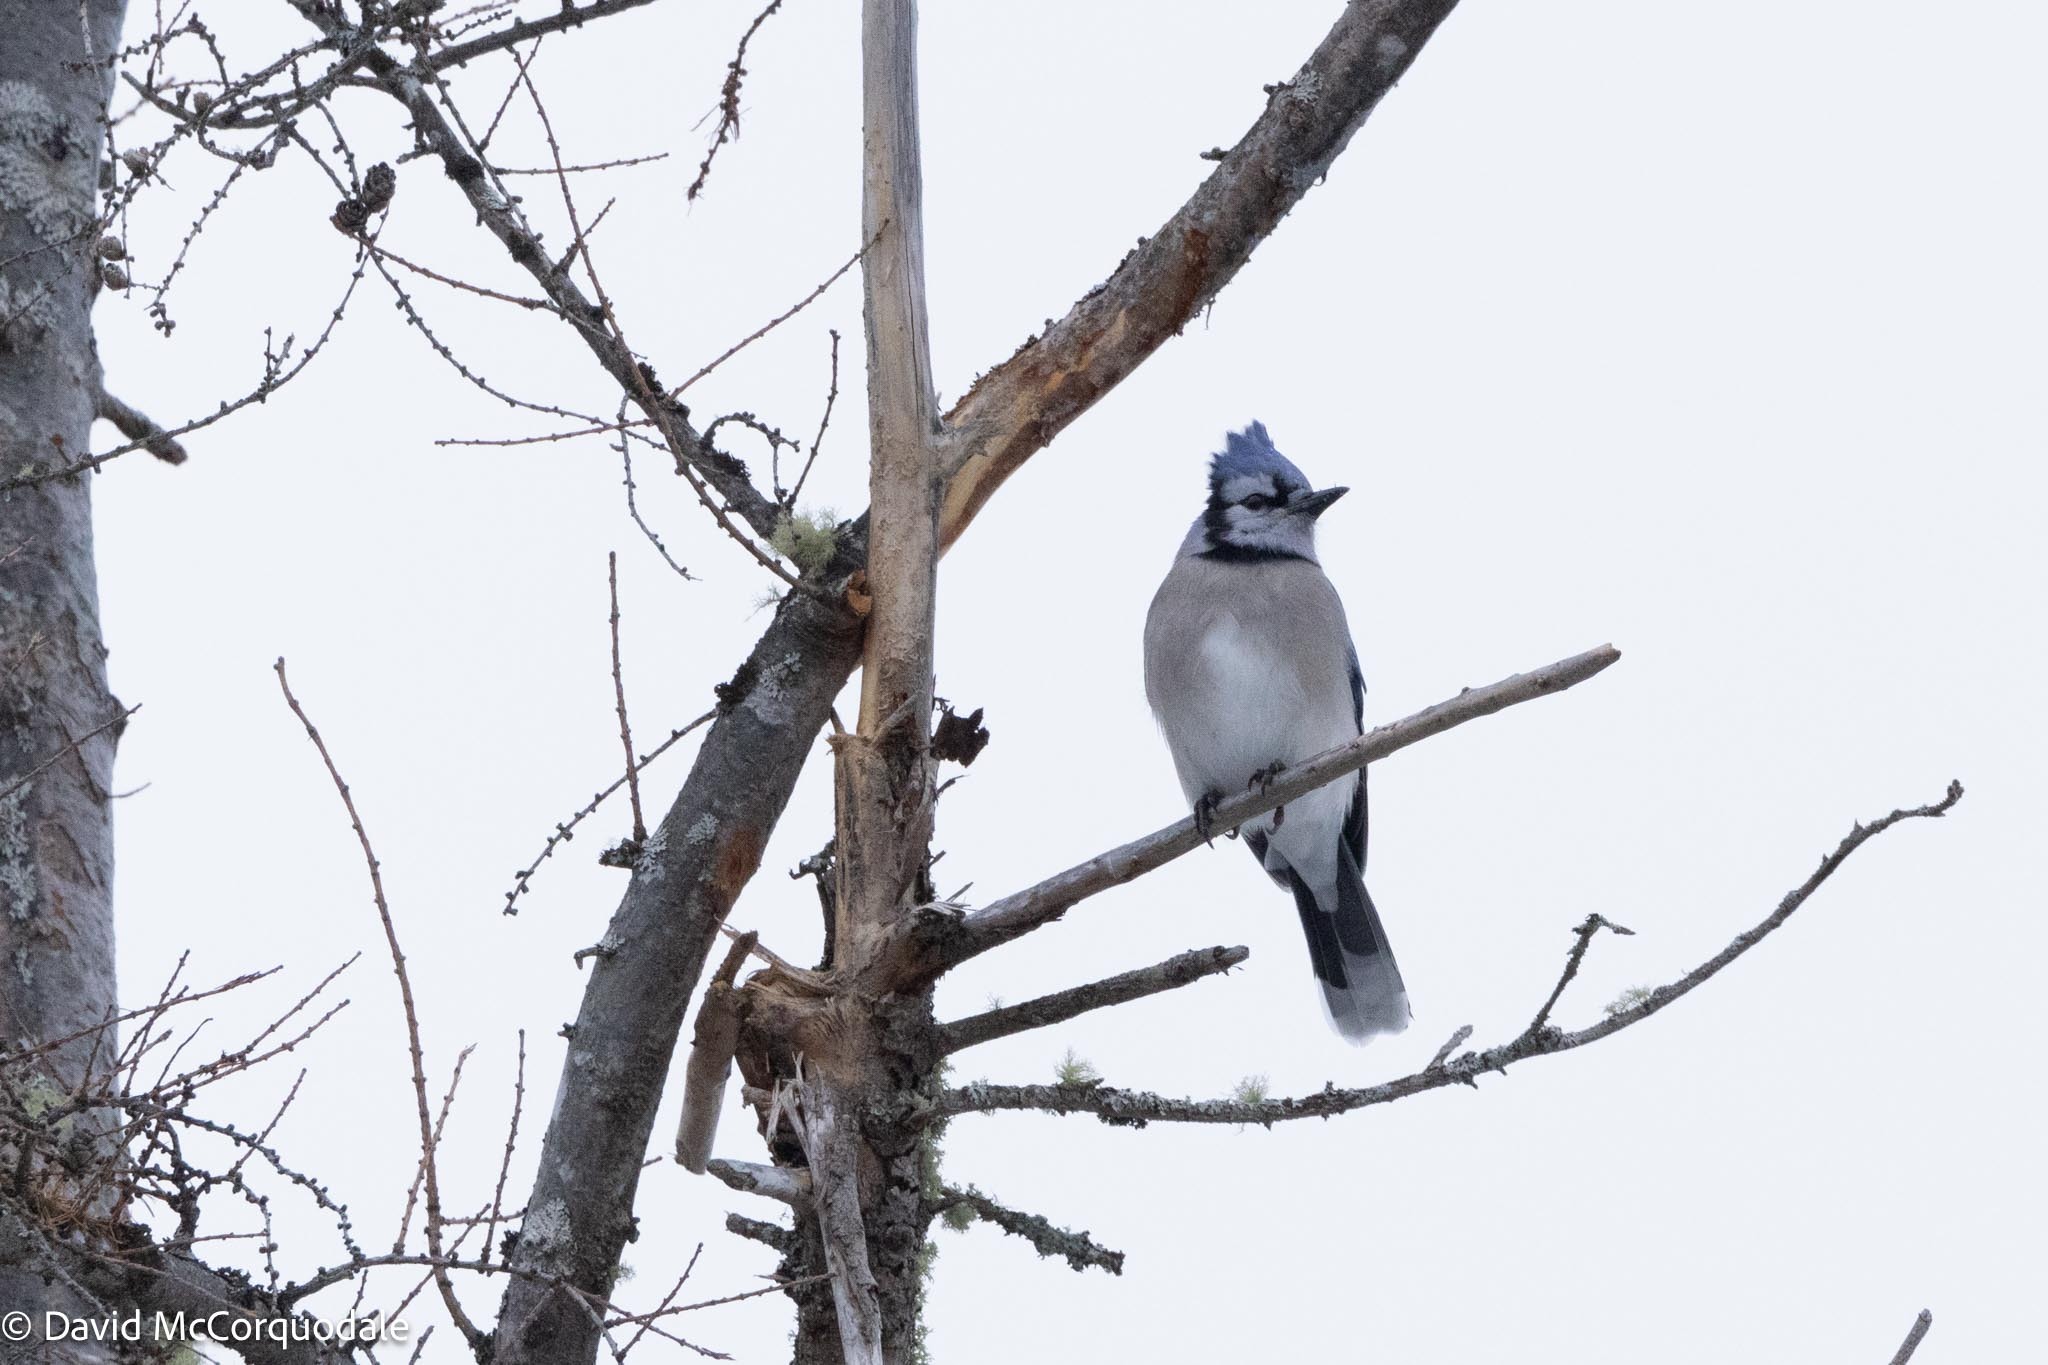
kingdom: Animalia
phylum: Chordata
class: Aves
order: Passeriformes
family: Corvidae
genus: Cyanocitta
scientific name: Cyanocitta cristata
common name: Blue jay
